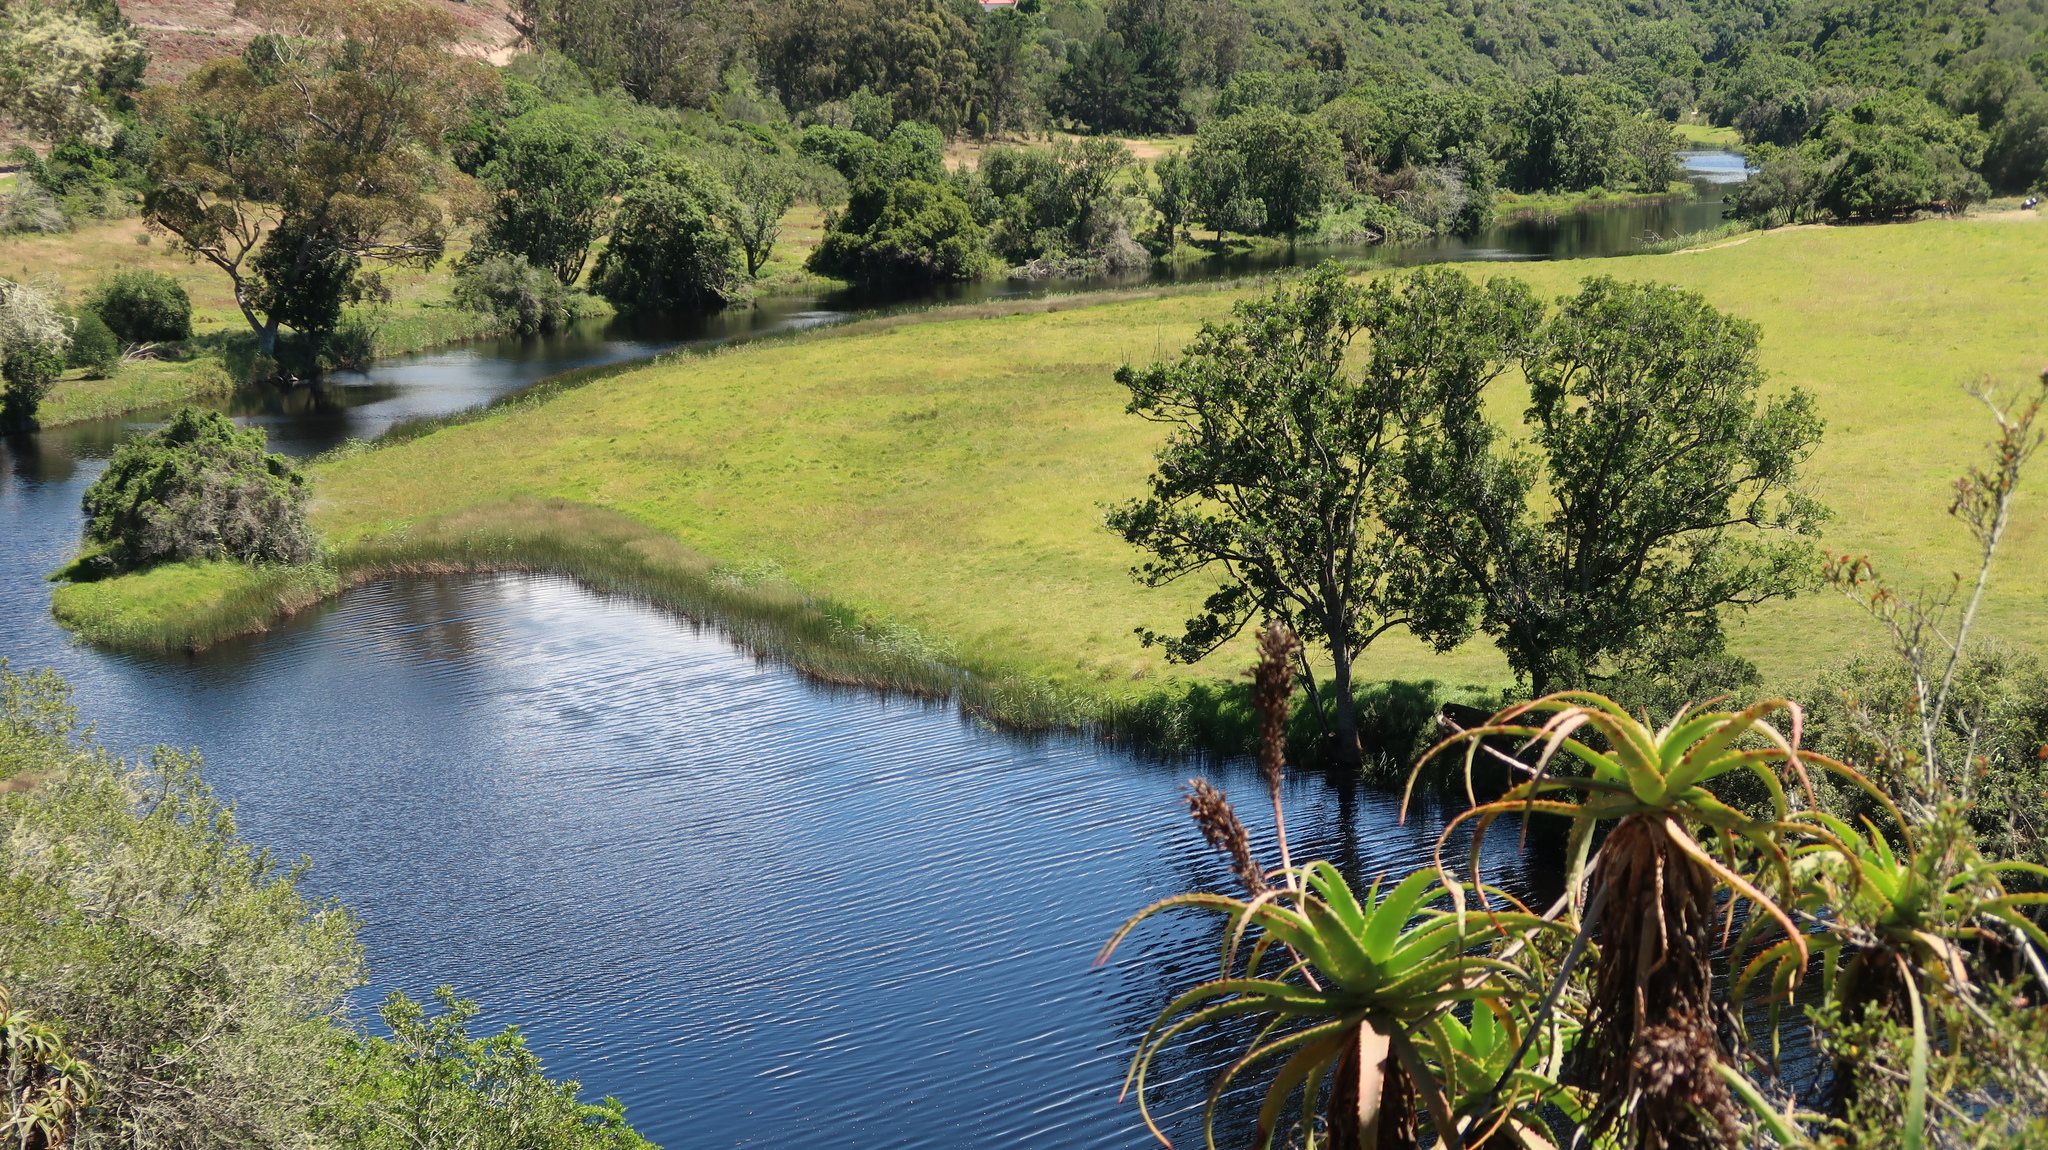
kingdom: Plantae
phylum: Tracheophyta
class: Liliopsida
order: Asparagales
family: Asphodelaceae
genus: Aloe
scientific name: Aloe arborescens
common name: Candelabra aloe
